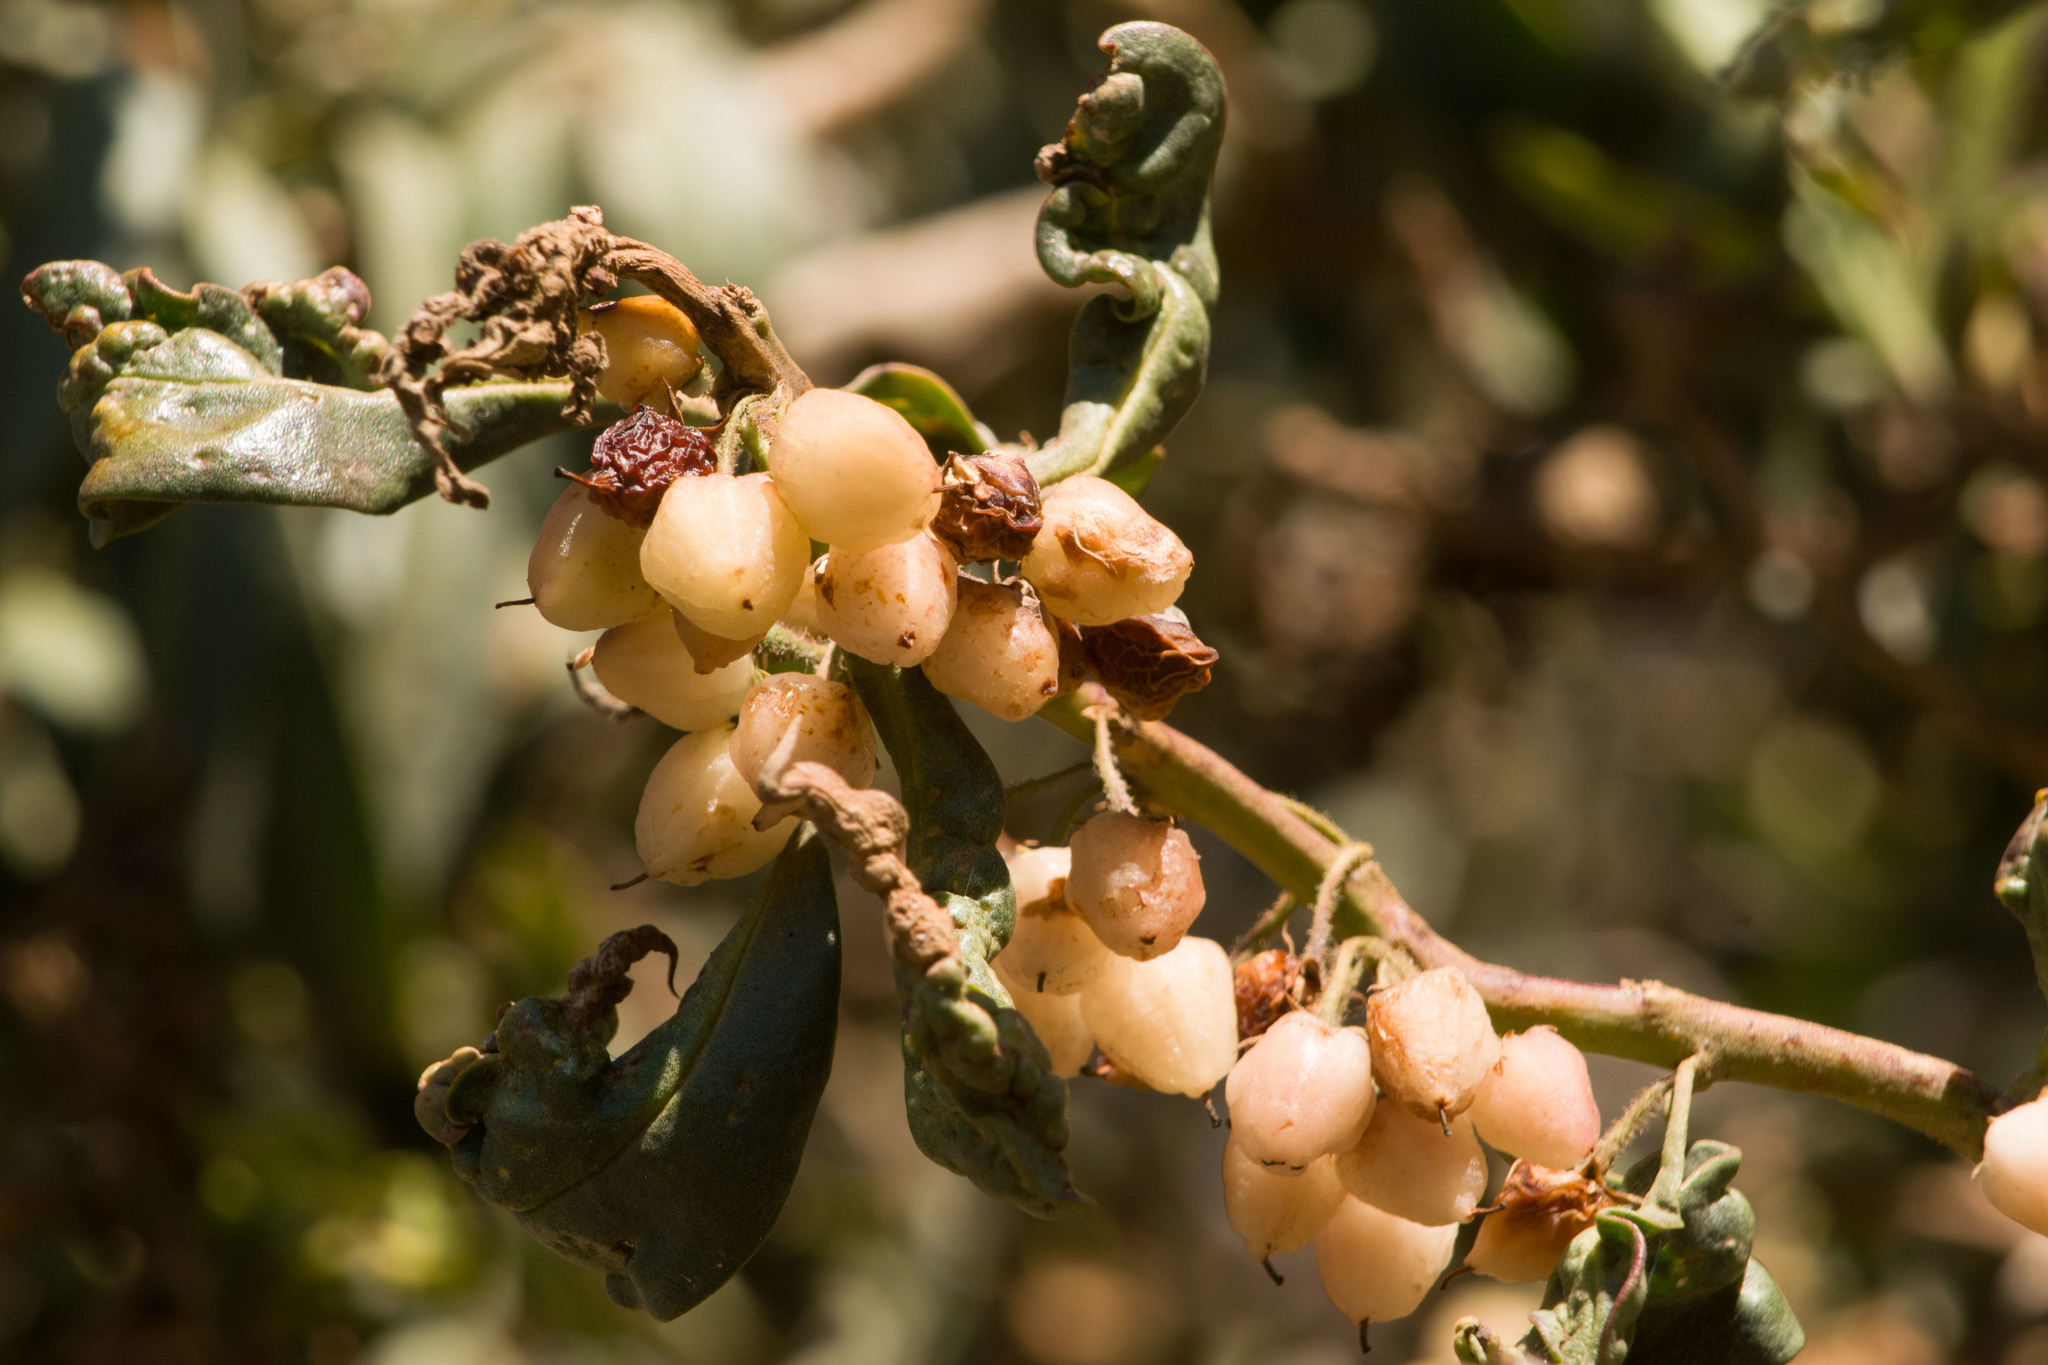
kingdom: Plantae
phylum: Tracheophyta
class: Magnoliopsida
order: Lamiales
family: Scrophulariaceae
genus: Myoporum
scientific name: Myoporum sandwicense
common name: Bastard-sandalwood
